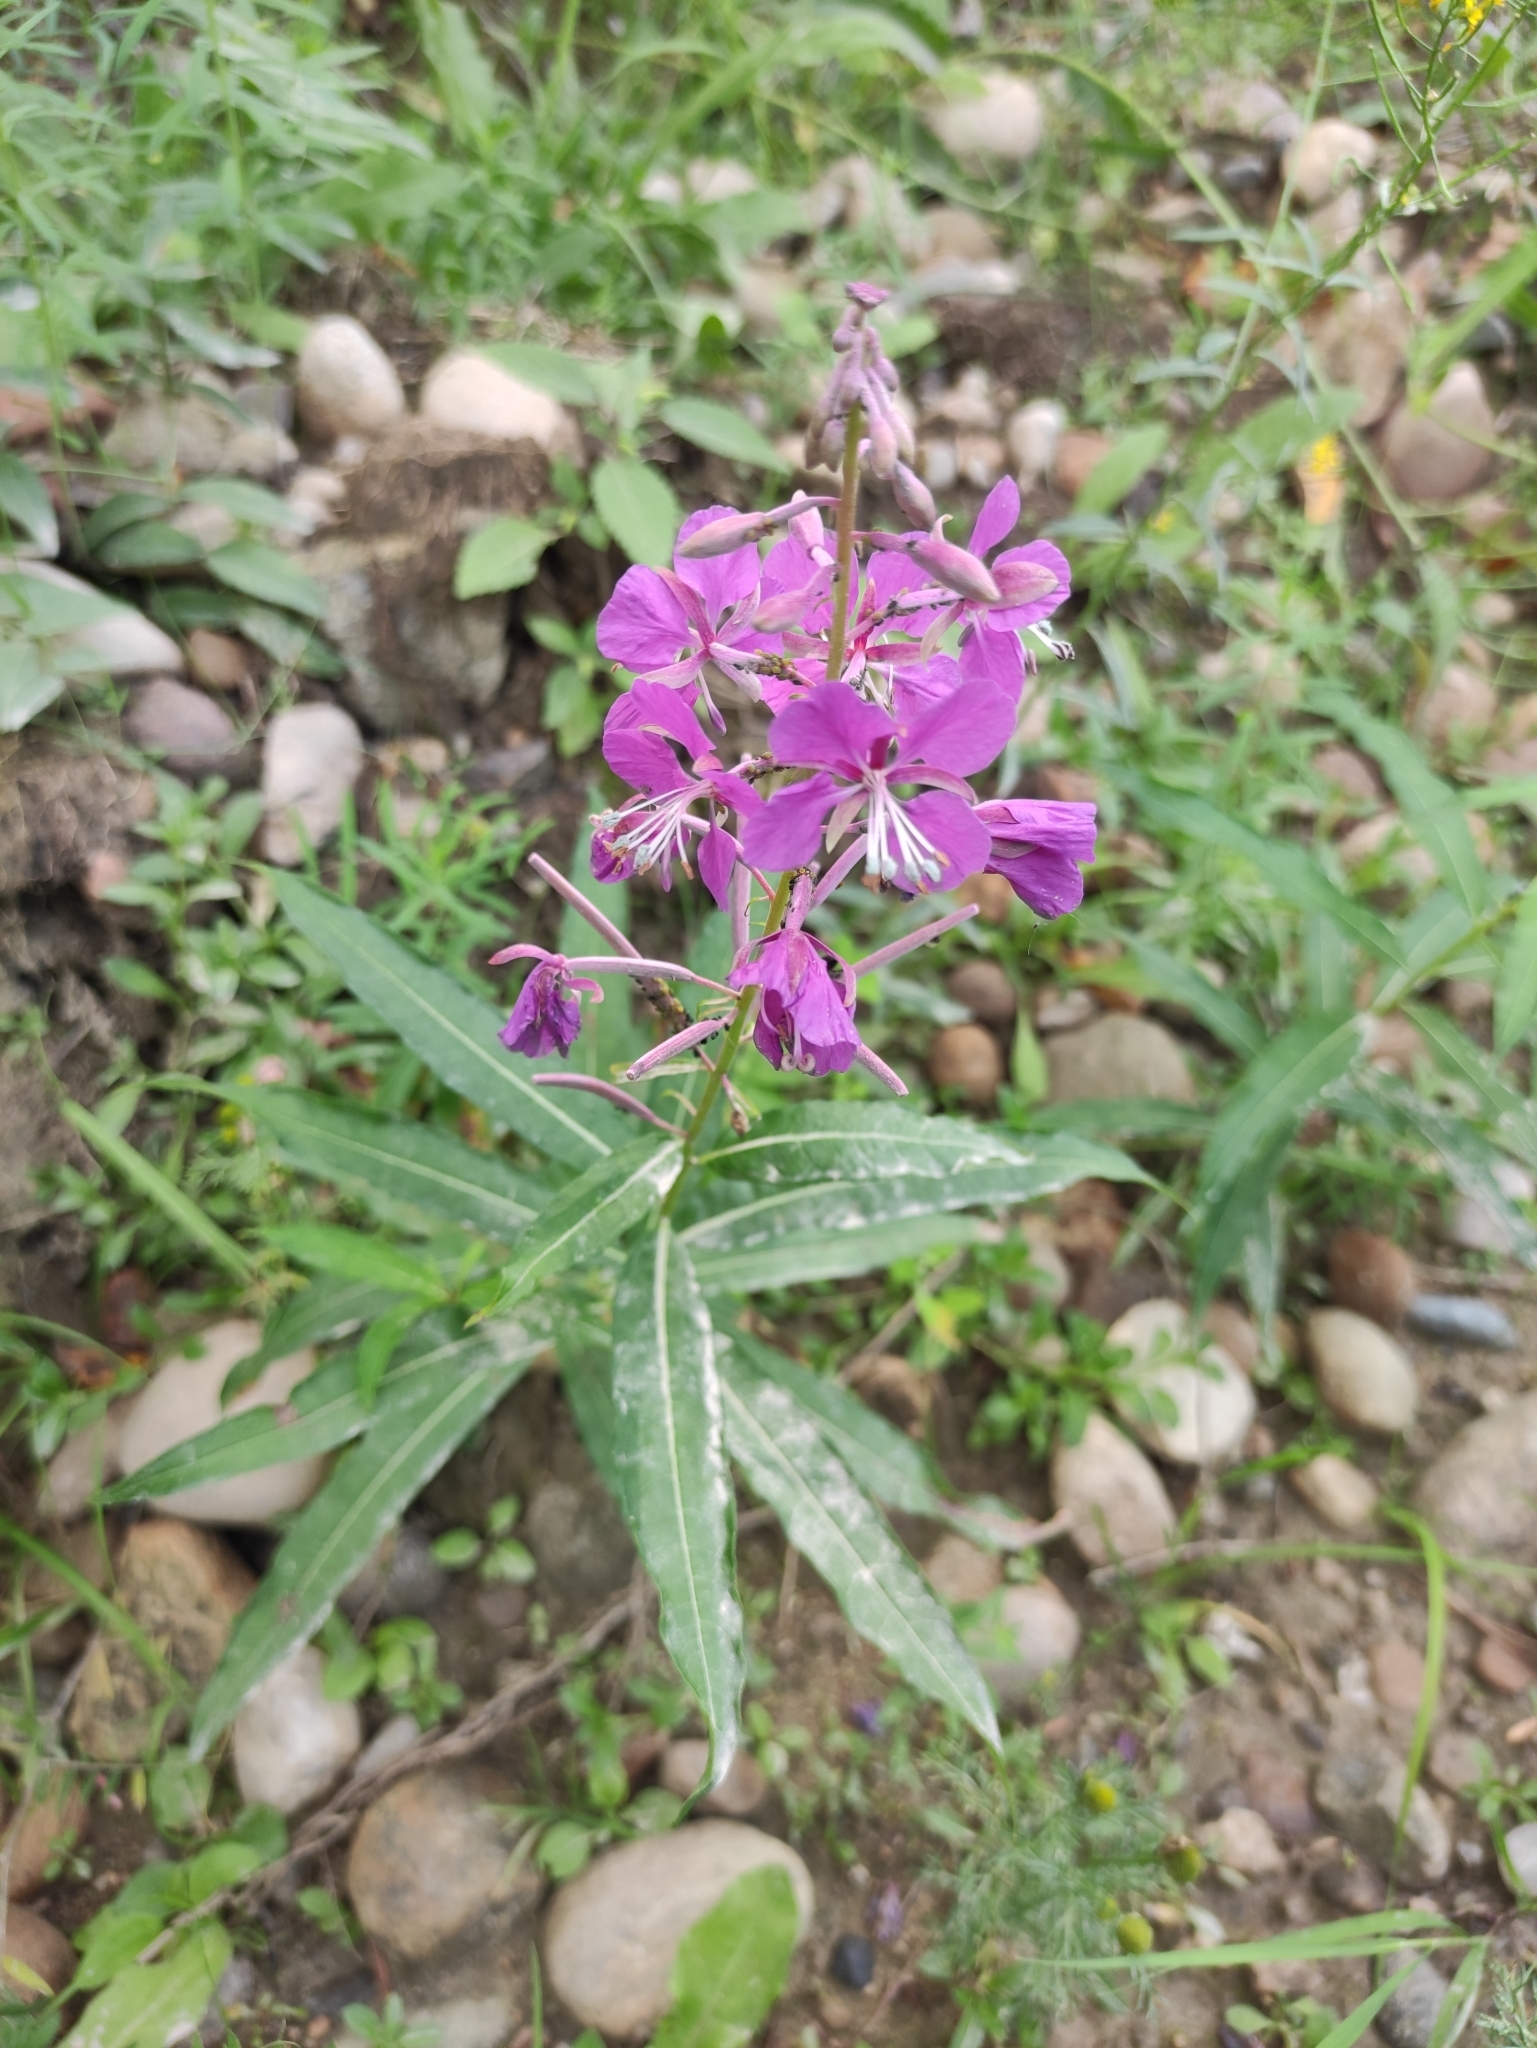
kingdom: Plantae
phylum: Tracheophyta
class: Magnoliopsida
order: Myrtales
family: Onagraceae
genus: Chamaenerion
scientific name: Chamaenerion angustifolium
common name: Fireweed
